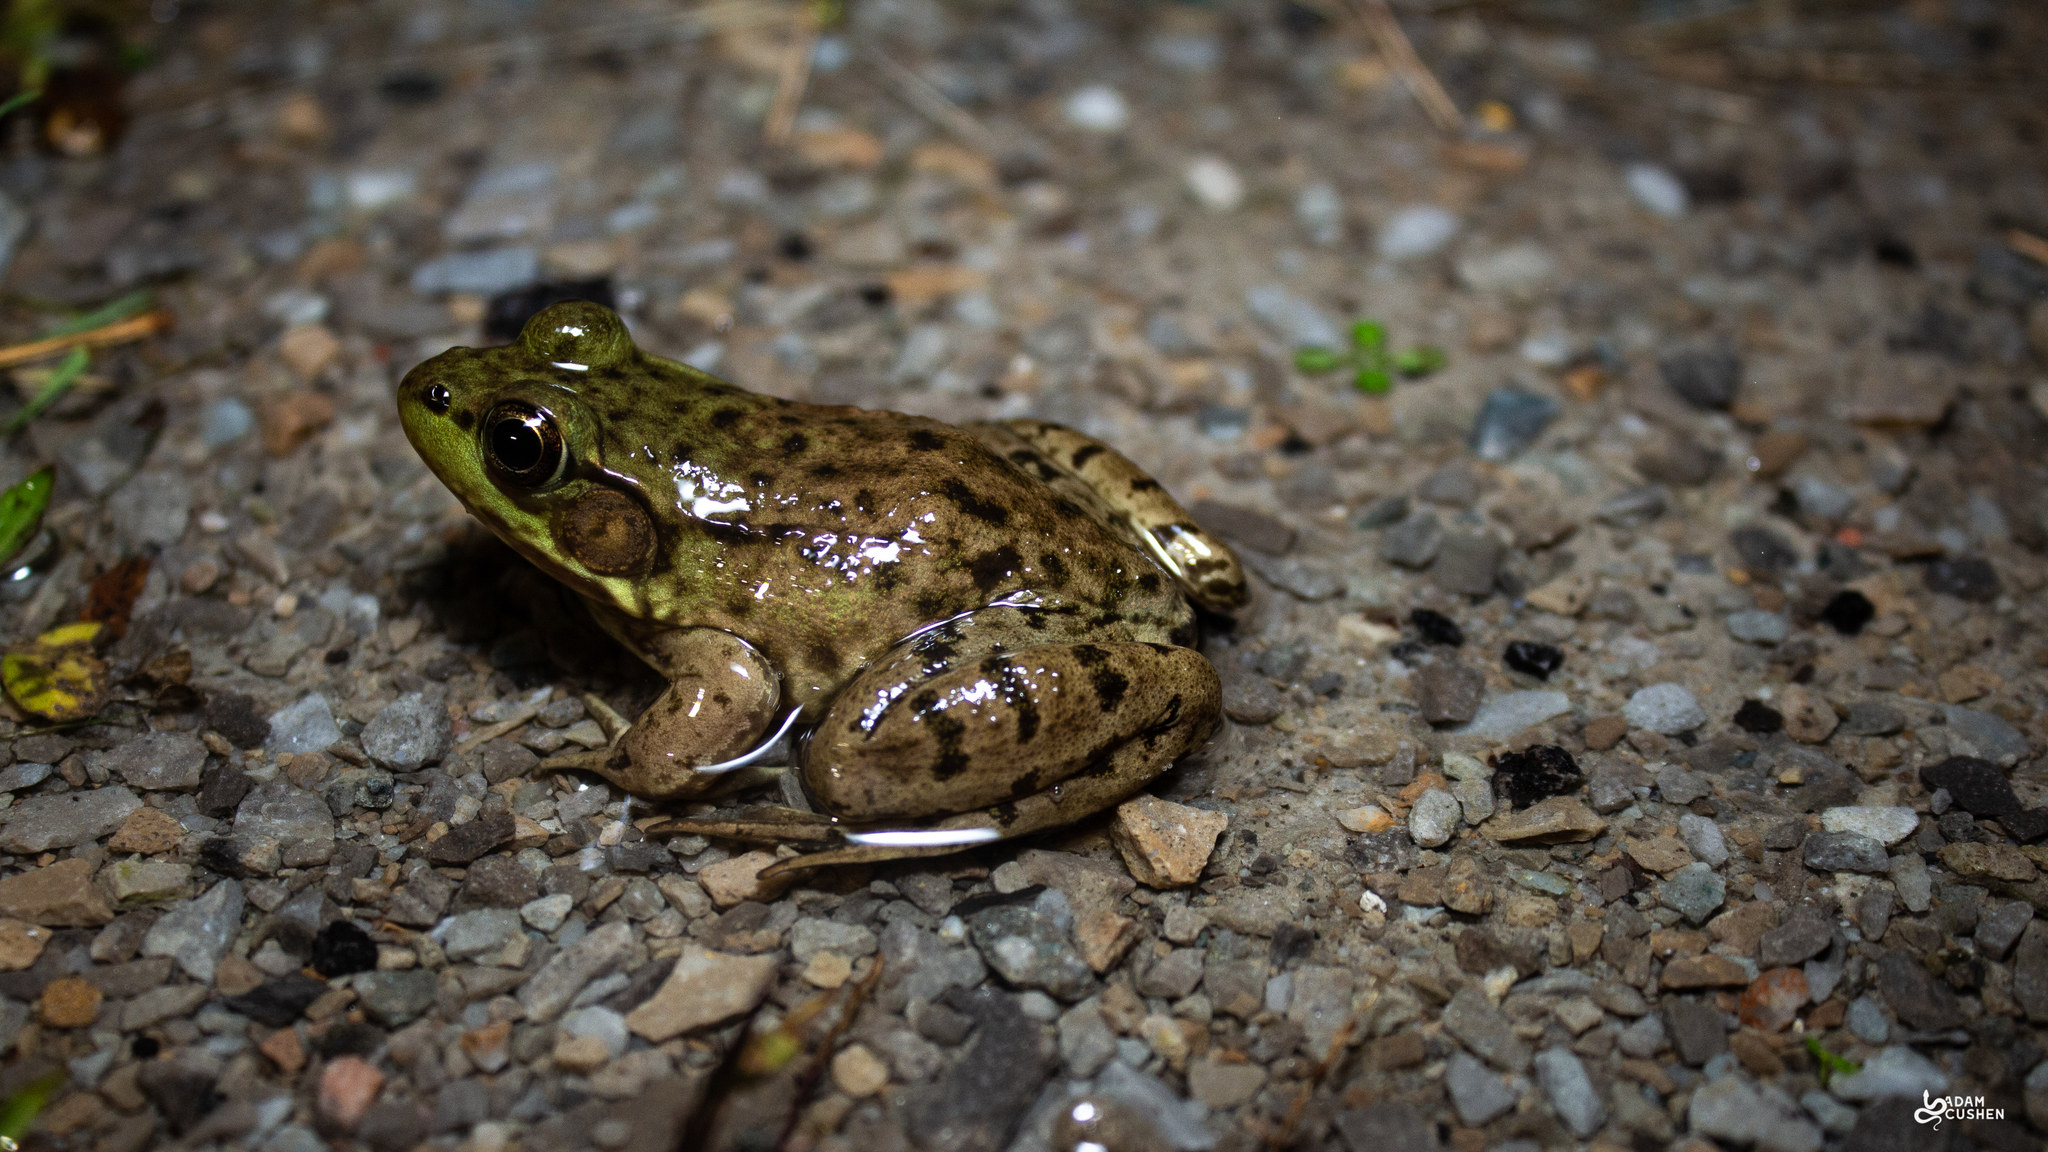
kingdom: Animalia
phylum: Chordata
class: Amphibia
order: Anura
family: Ranidae
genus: Lithobates
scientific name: Lithobates clamitans
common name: Green frog
